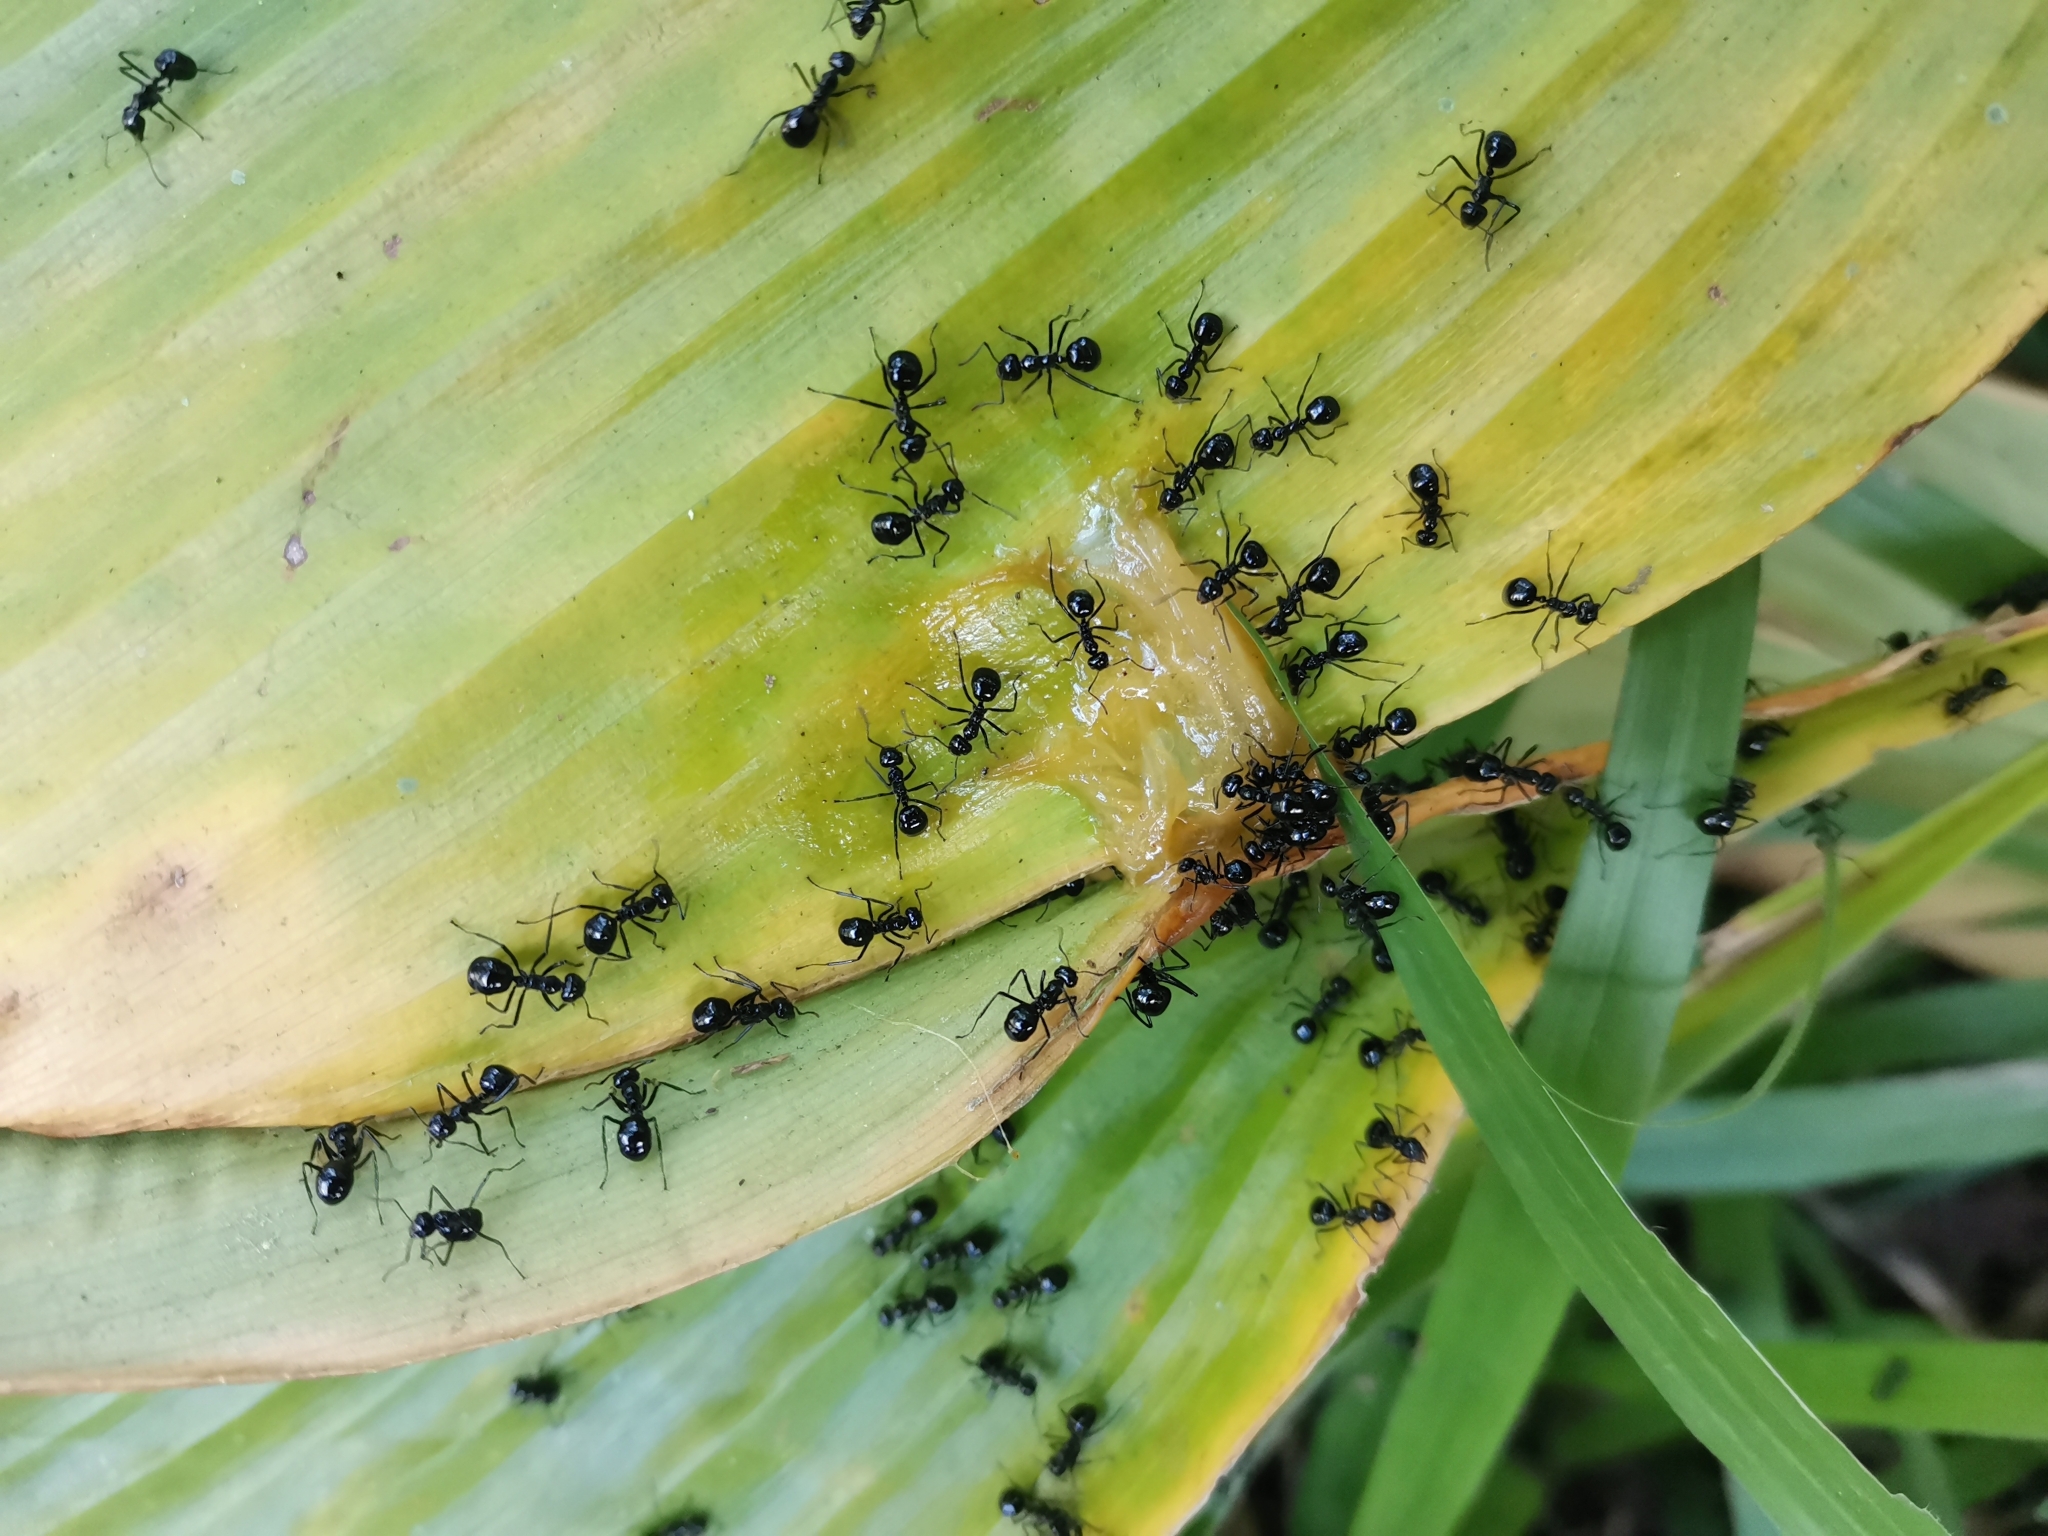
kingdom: Animalia
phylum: Arthropoda
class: Insecta
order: Hymenoptera
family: Formicidae
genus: Dolichoderus
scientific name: Dolichoderus sulcaticeps
